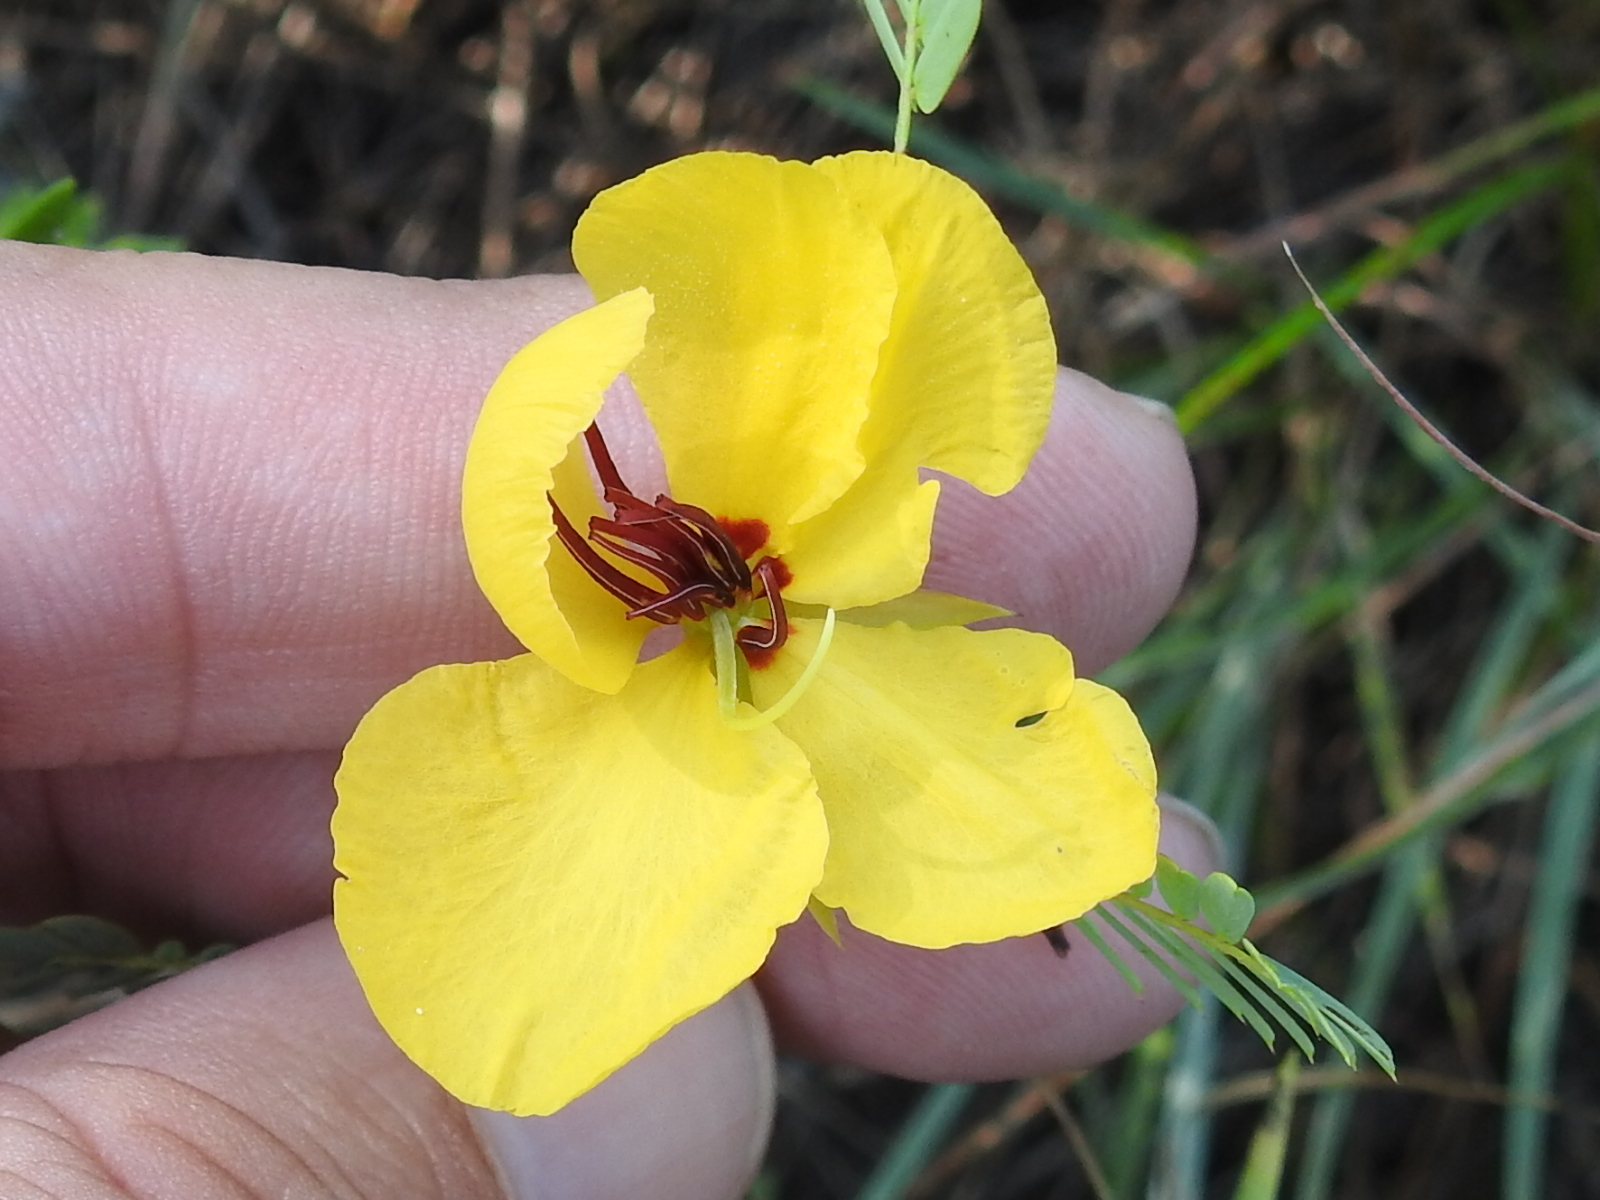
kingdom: Plantae
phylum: Tracheophyta
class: Magnoliopsida
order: Fabales
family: Fabaceae
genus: Chamaecrista
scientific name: Chamaecrista fasciculata
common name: Golden cassia
